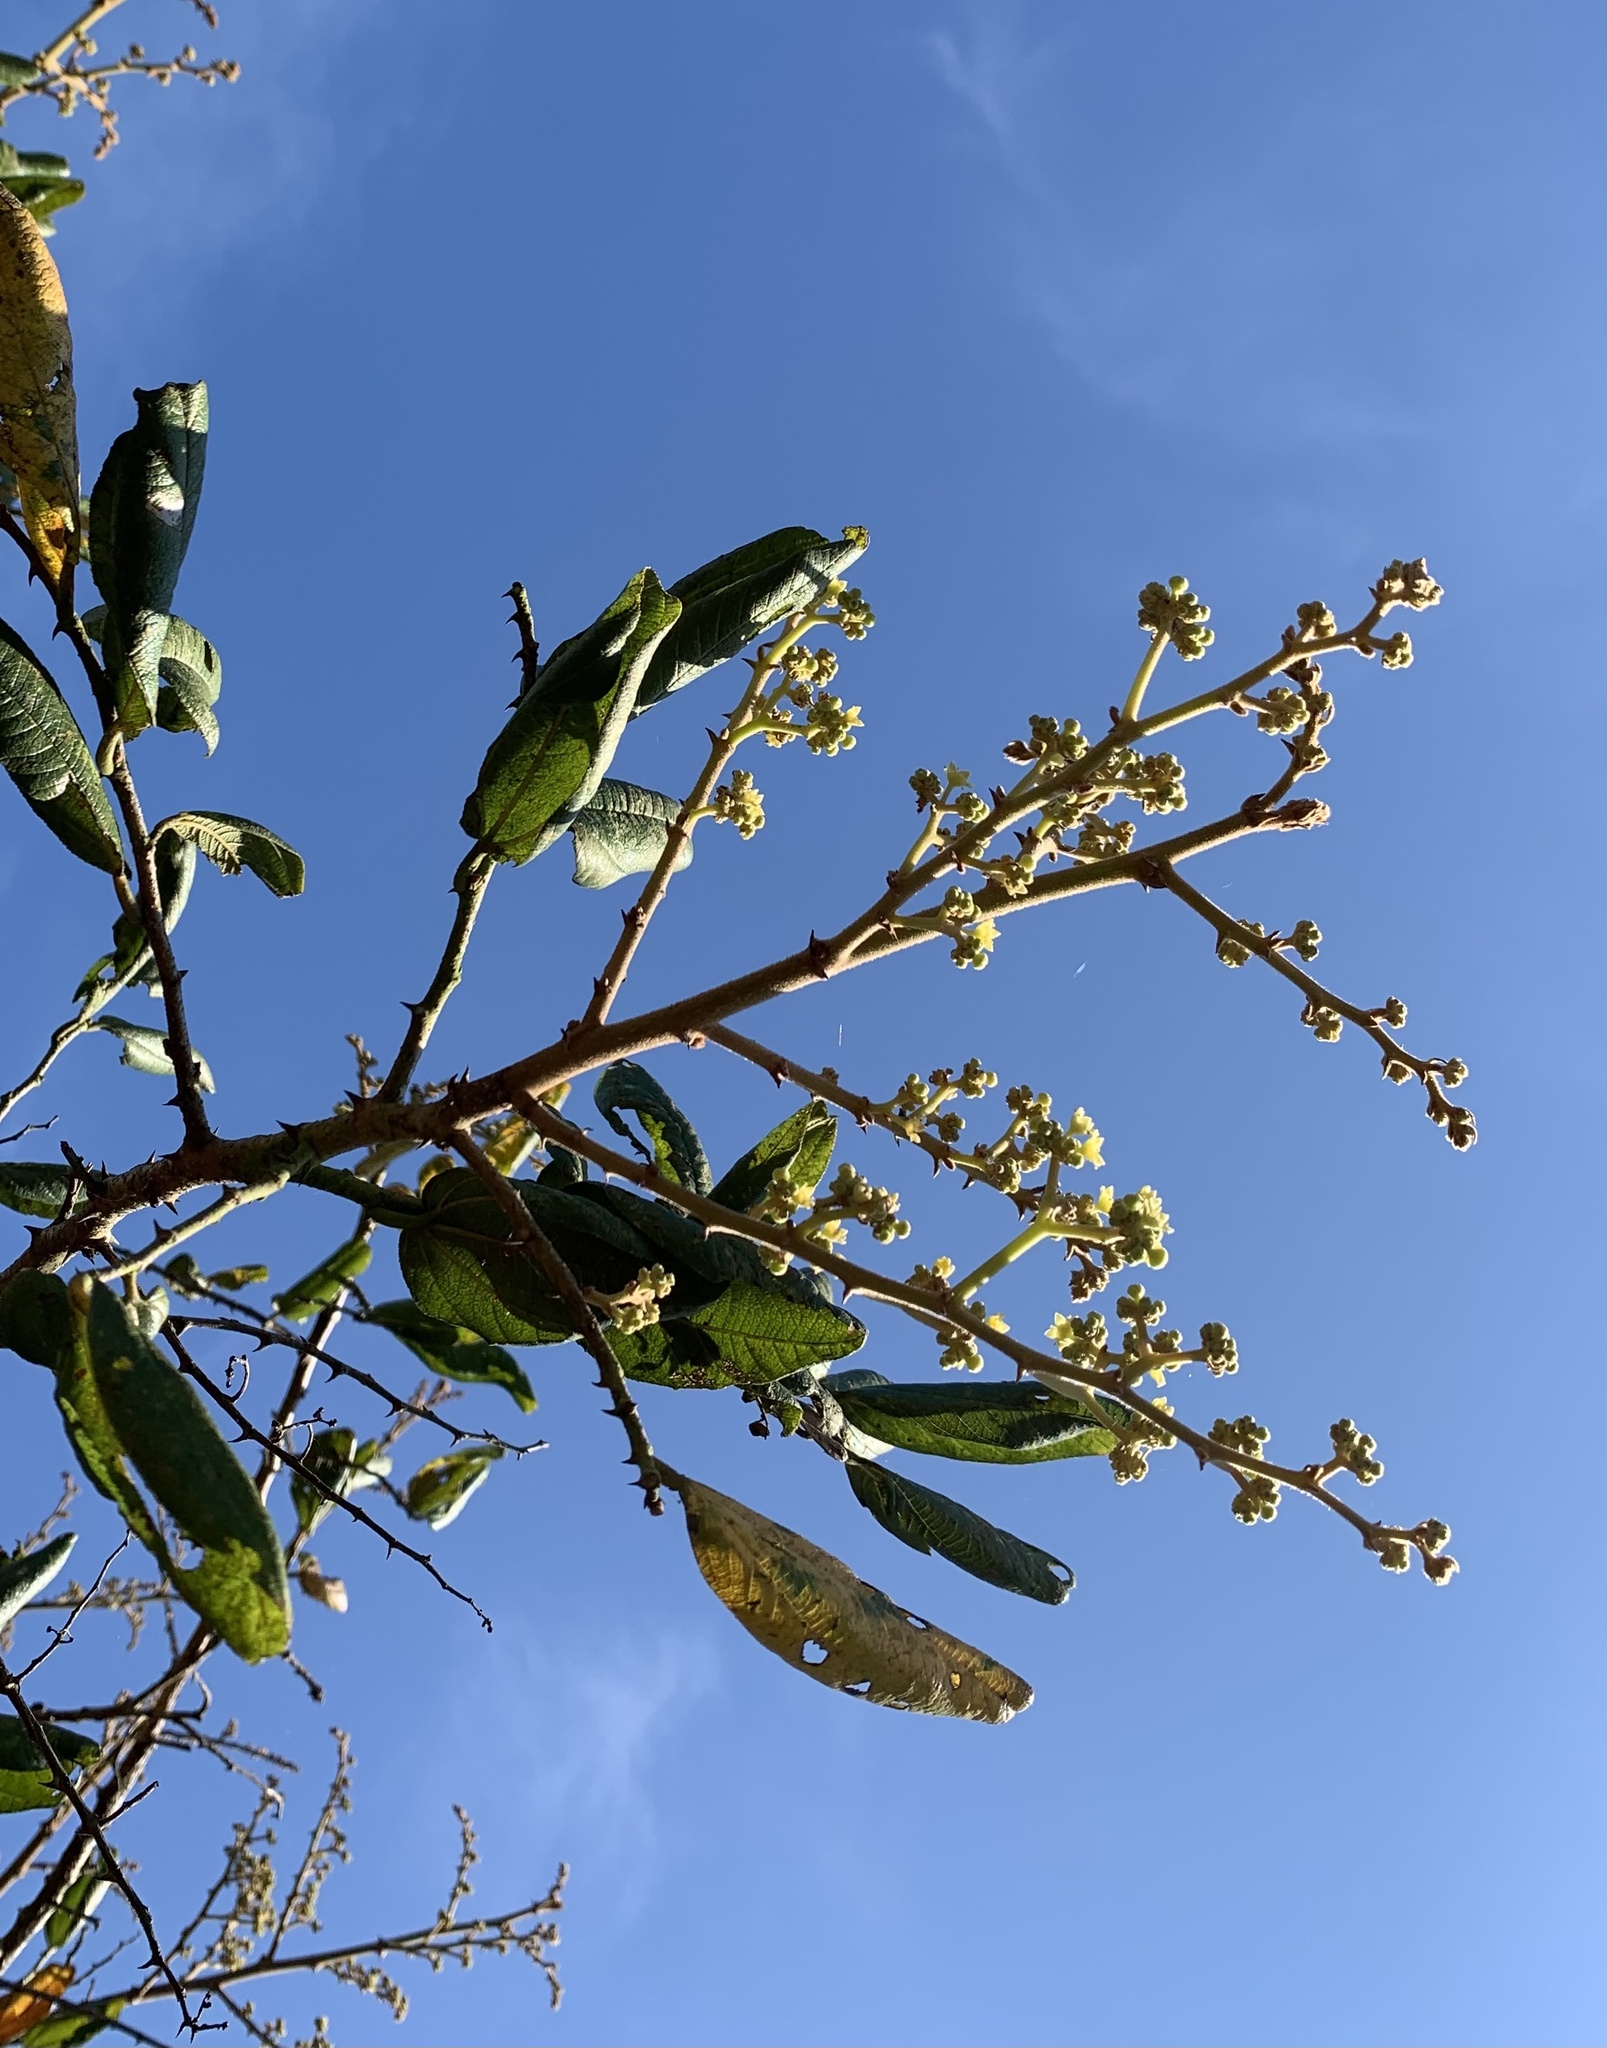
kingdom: Plantae
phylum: Tracheophyta
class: Magnoliopsida
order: Rosales
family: Rhamnaceae
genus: Ziziphus
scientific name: Ziziphus rugosa
